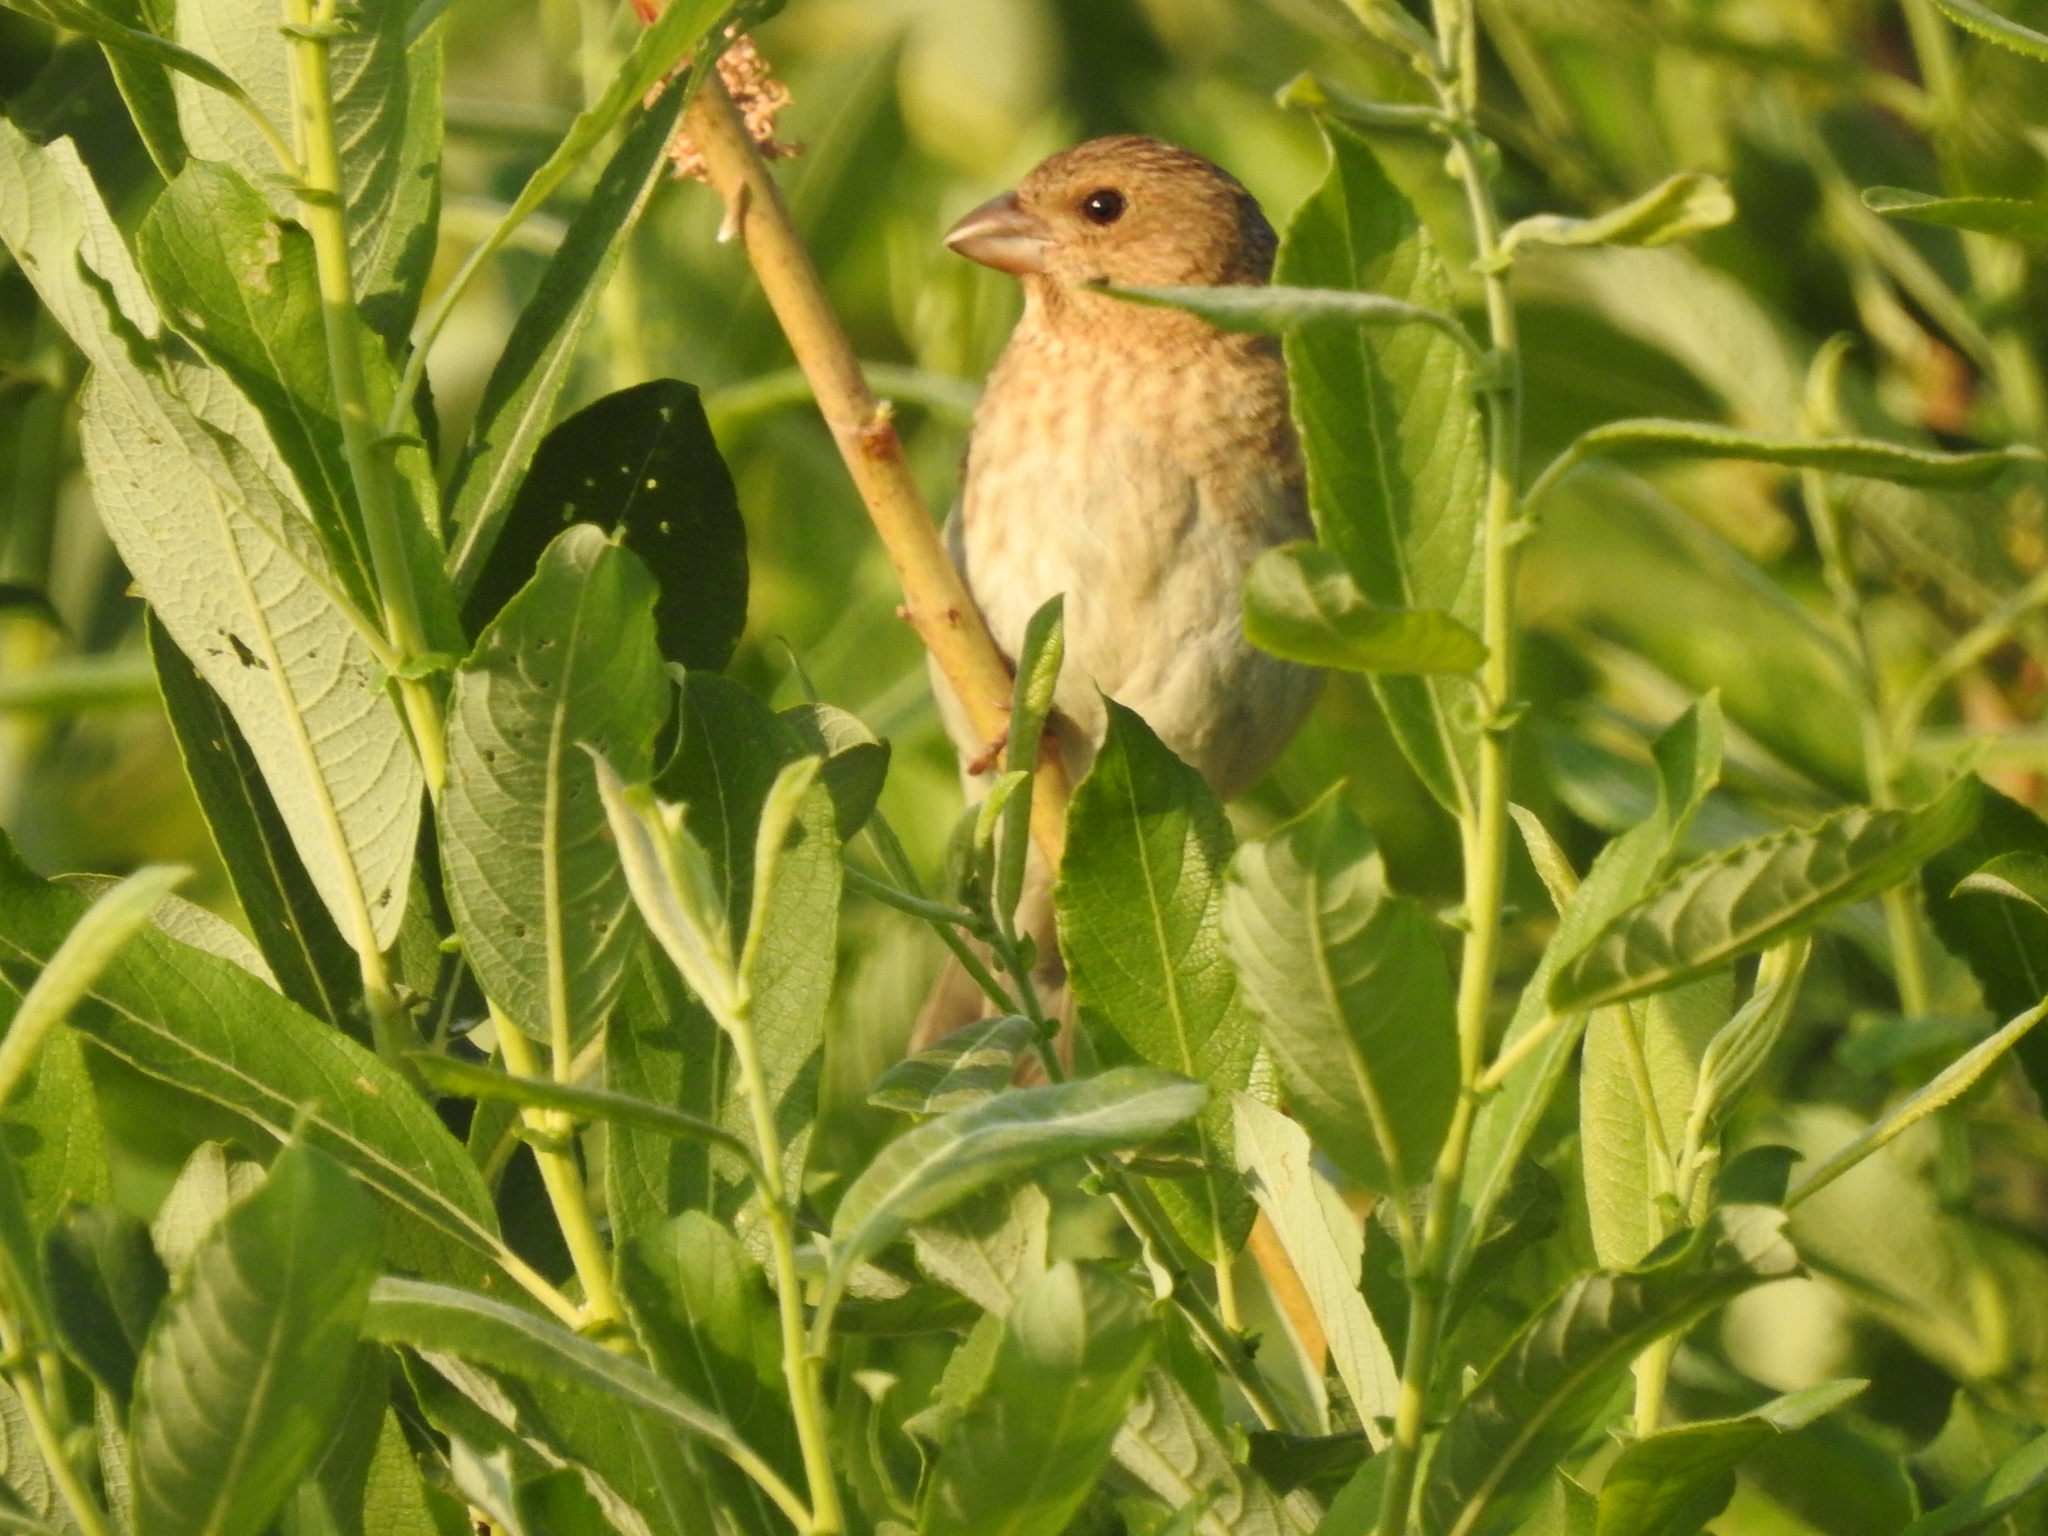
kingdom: Animalia
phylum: Chordata
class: Aves
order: Passeriformes
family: Fringillidae
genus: Carpodacus
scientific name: Carpodacus erythrinus
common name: Common rosefinch
